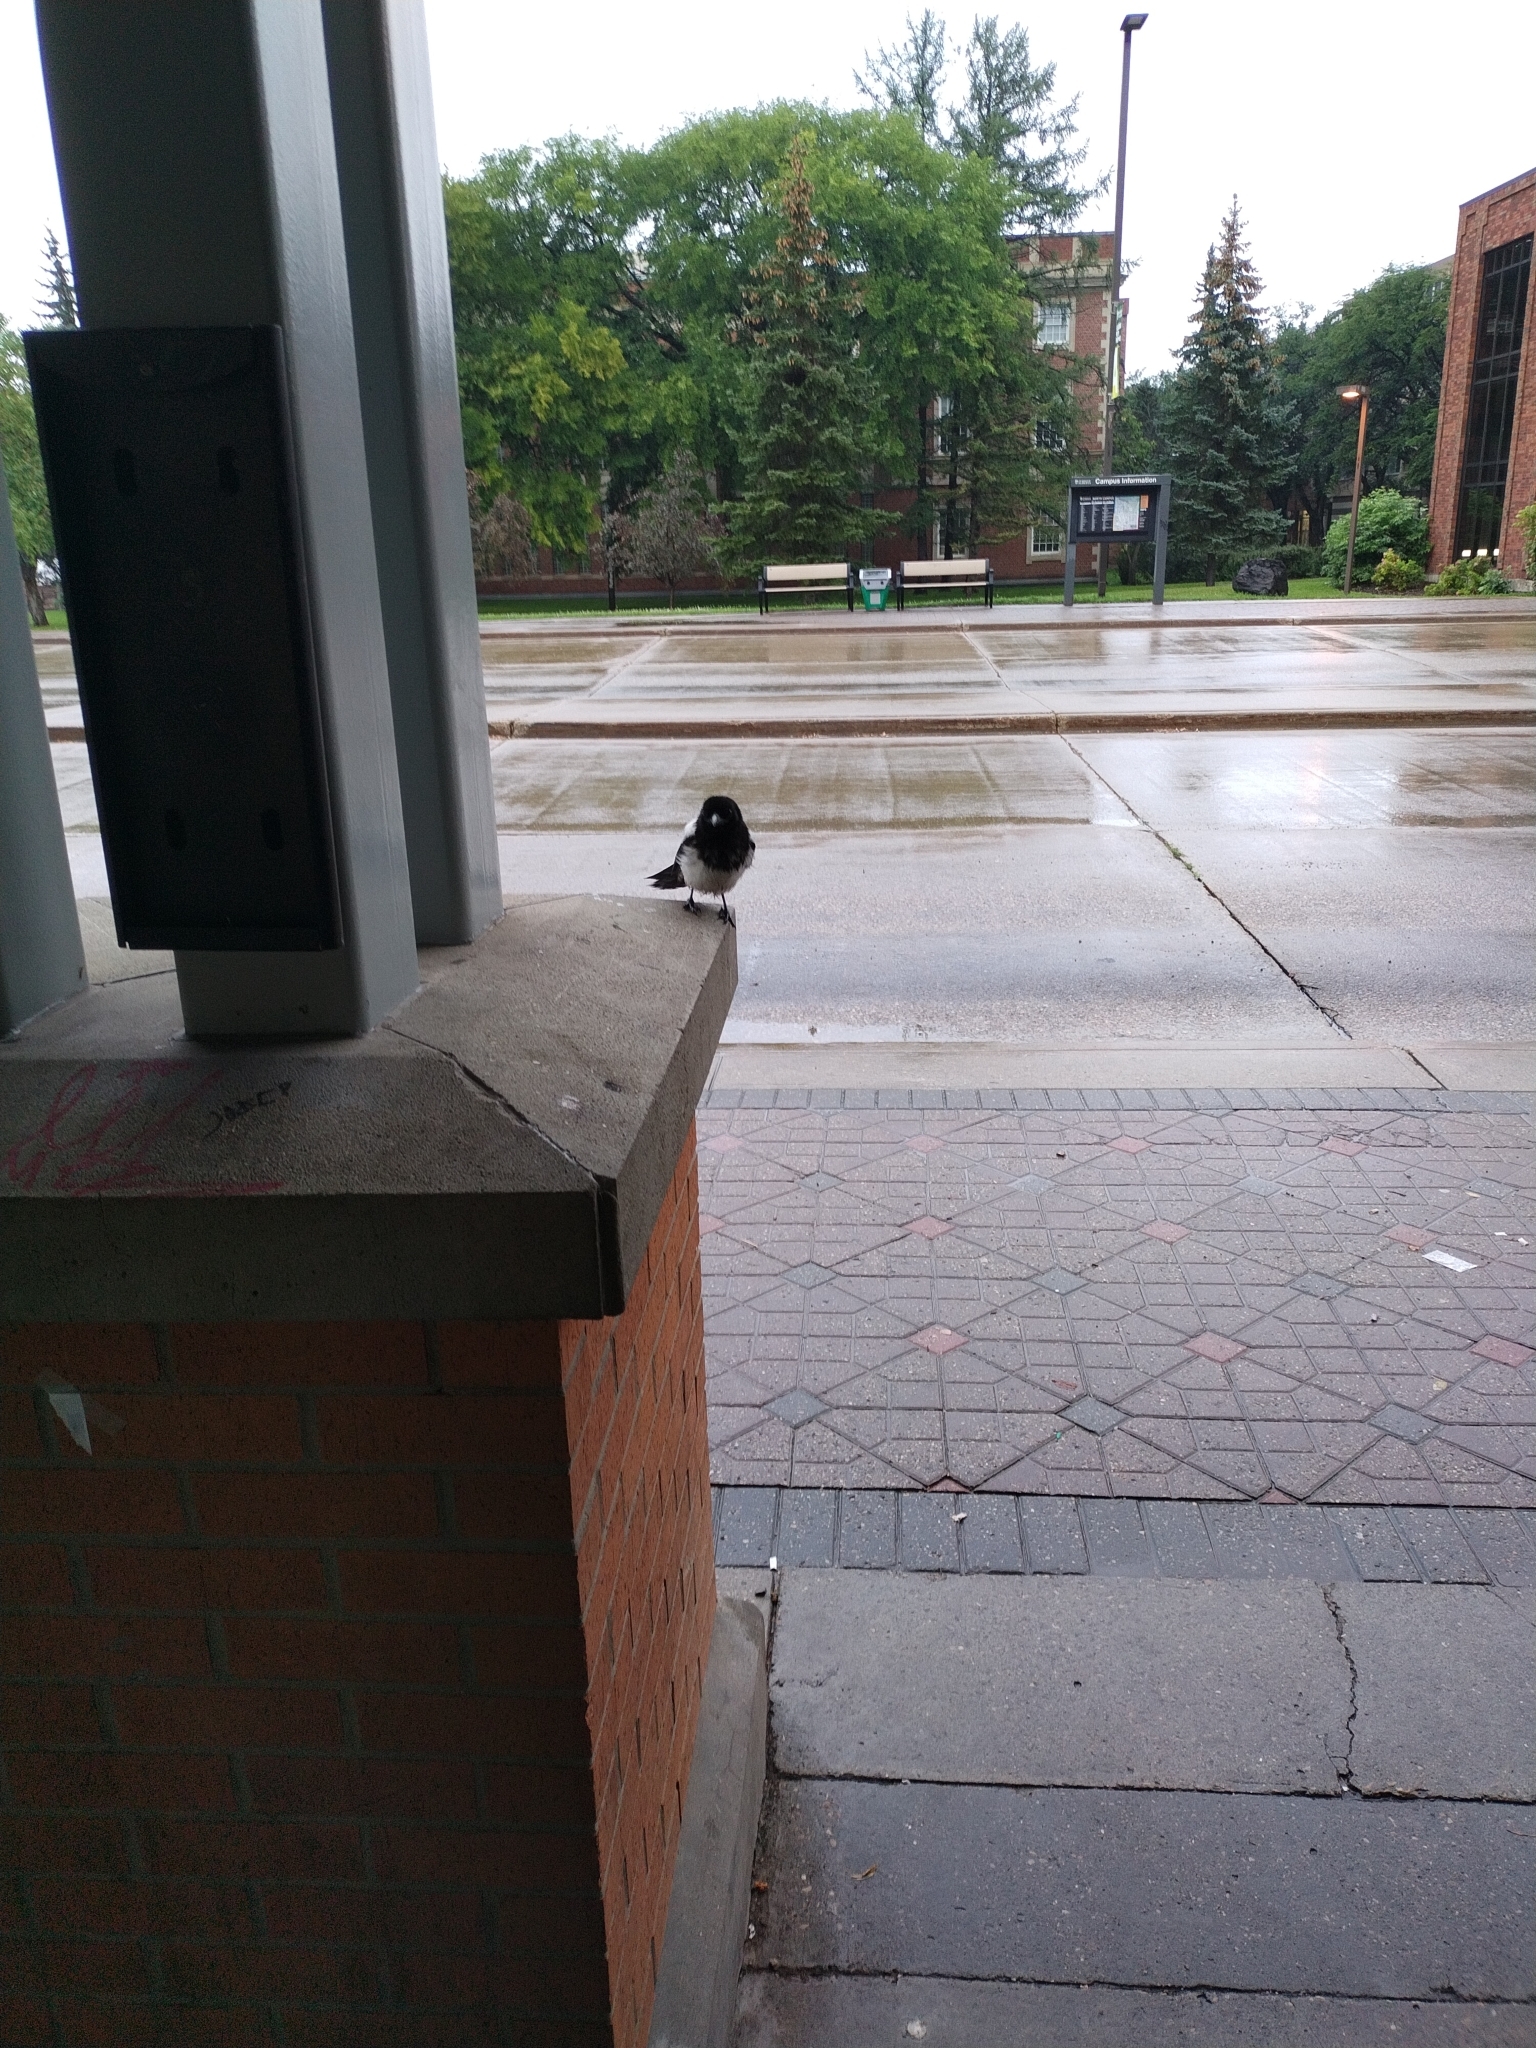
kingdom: Animalia
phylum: Chordata
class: Aves
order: Passeriformes
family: Corvidae
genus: Pica
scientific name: Pica hudsonia
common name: Black-billed magpie
